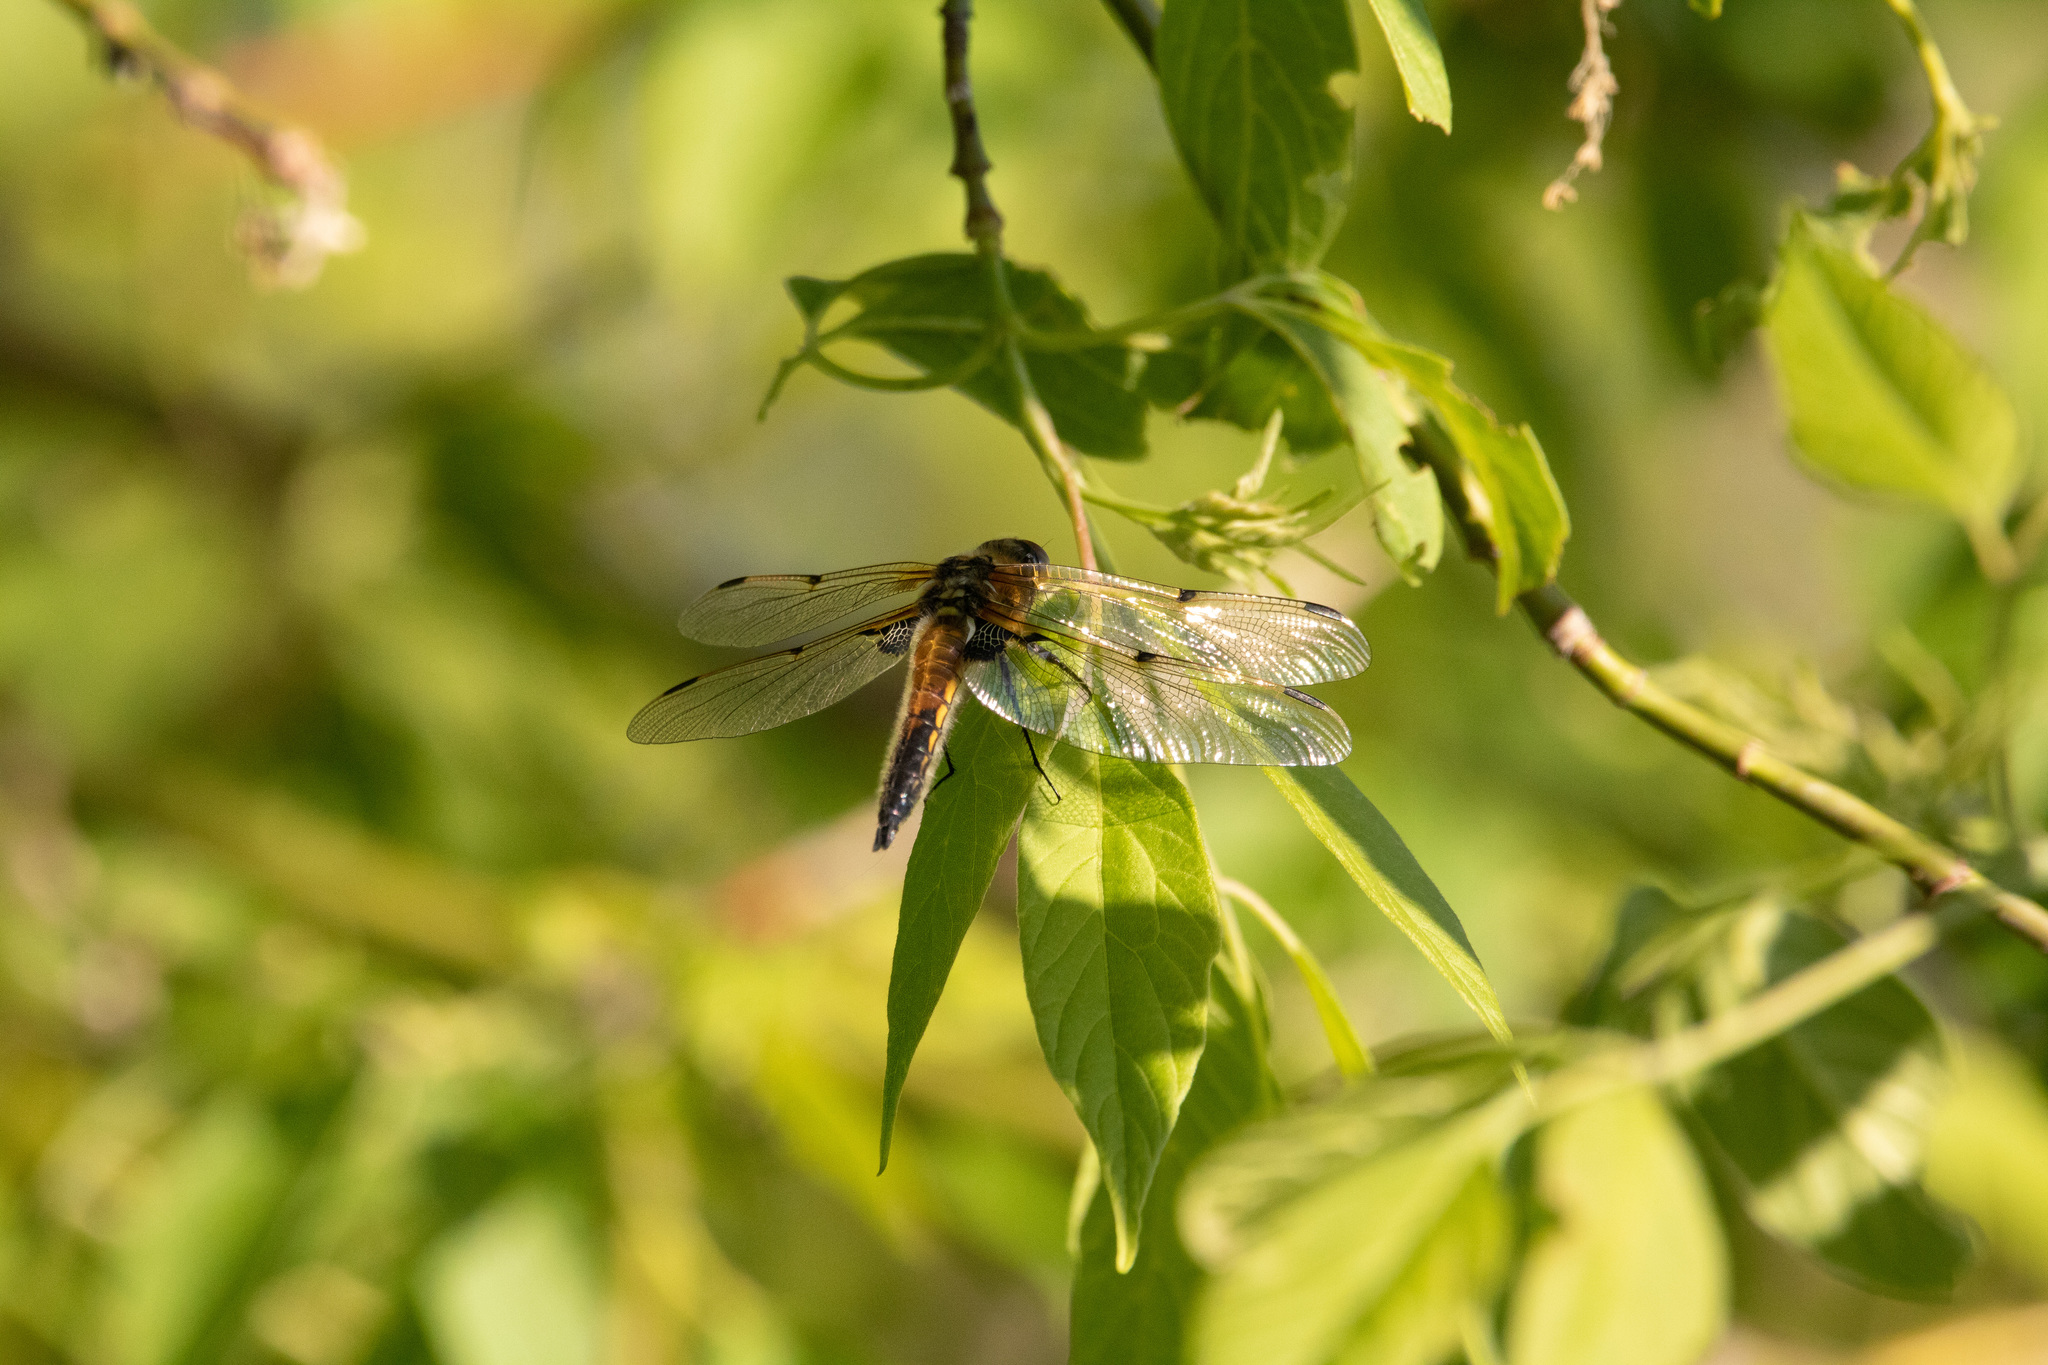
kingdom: Animalia
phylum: Arthropoda
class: Insecta
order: Odonata
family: Libellulidae
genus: Libellula
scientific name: Libellula quadrimaculata
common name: Four-spotted chaser
